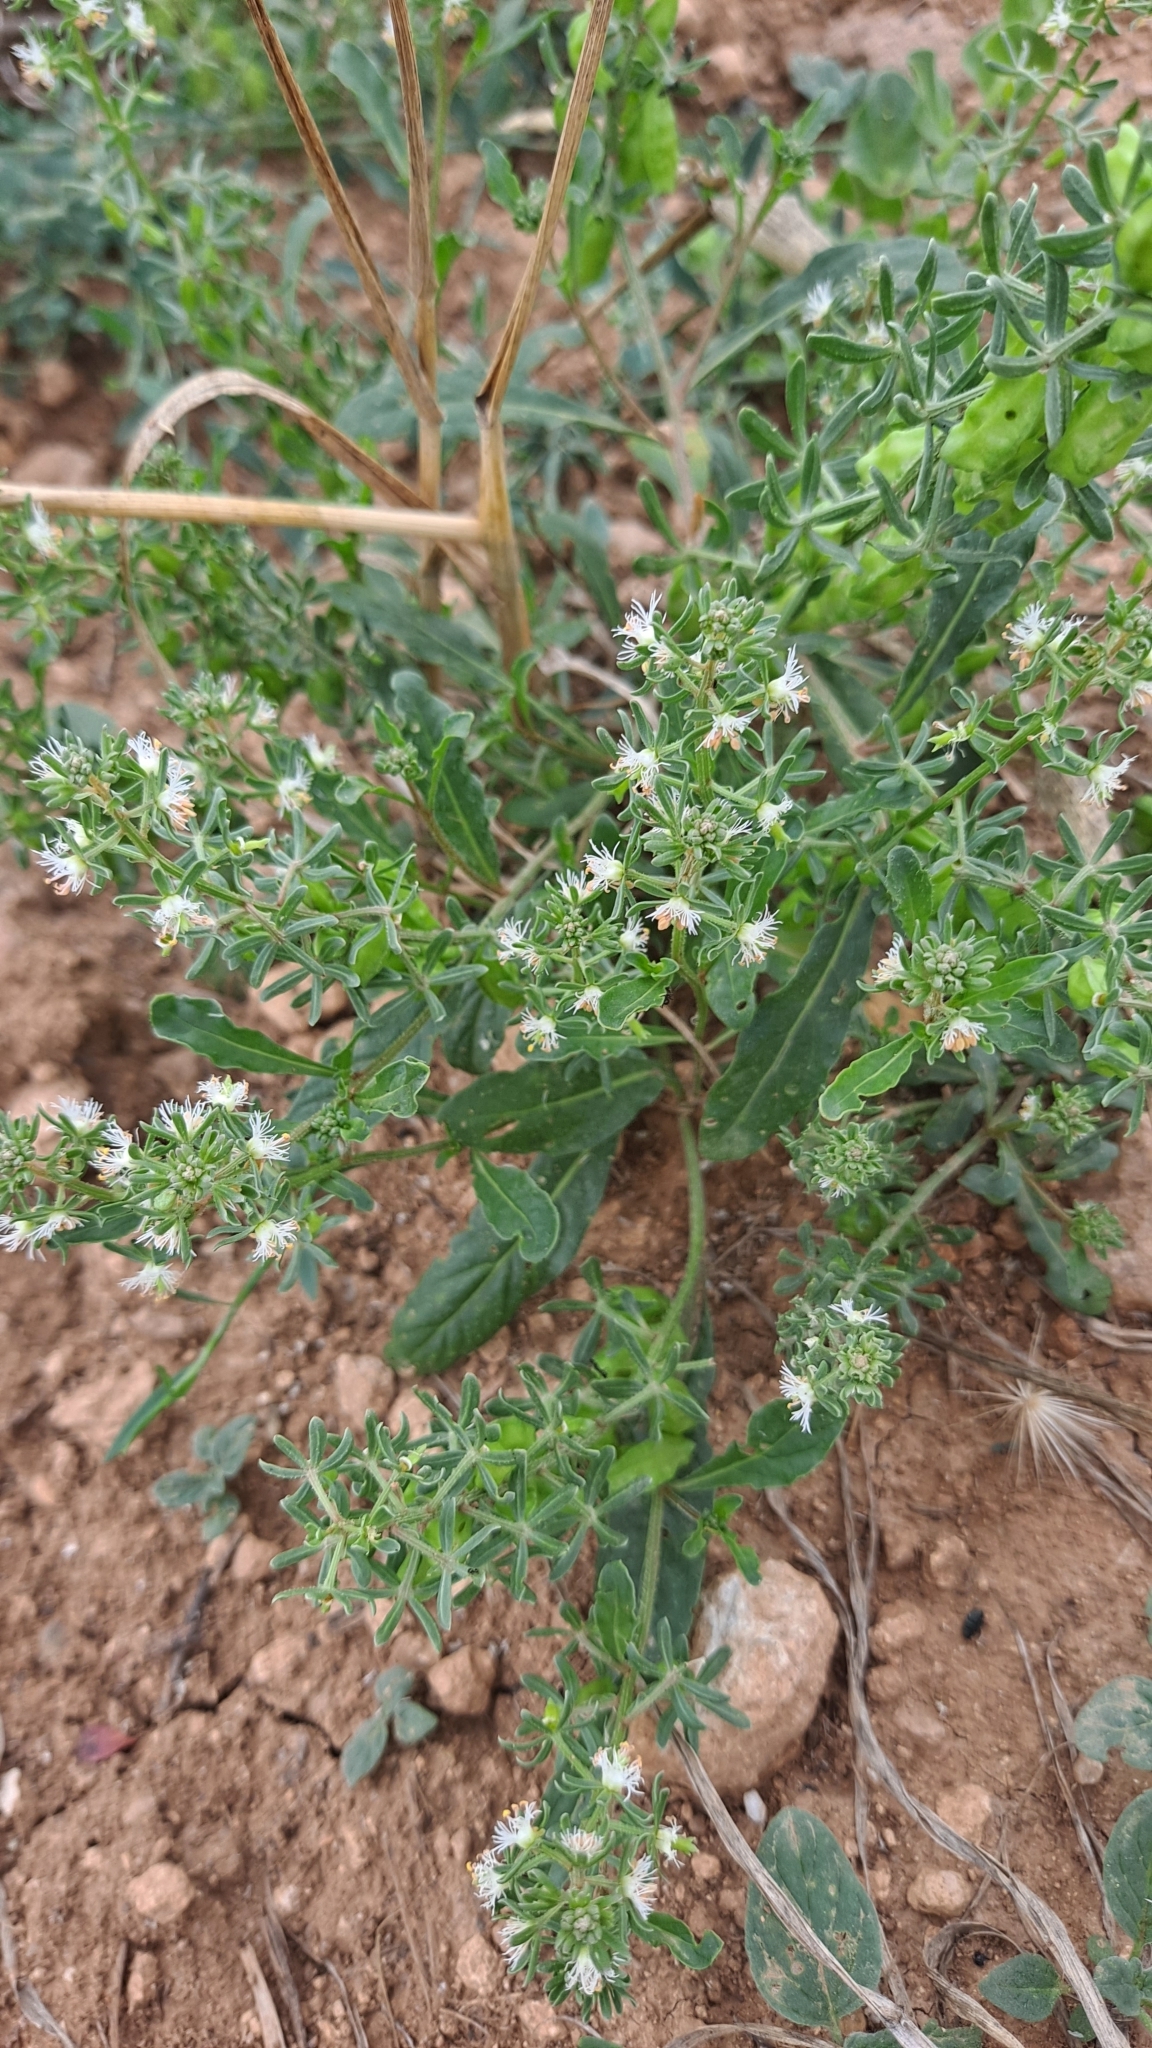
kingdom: Plantae
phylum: Tracheophyta
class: Magnoliopsida
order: Brassicales
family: Resedaceae
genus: Reseda
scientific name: Reseda phyteuma
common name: Corn mignonette
